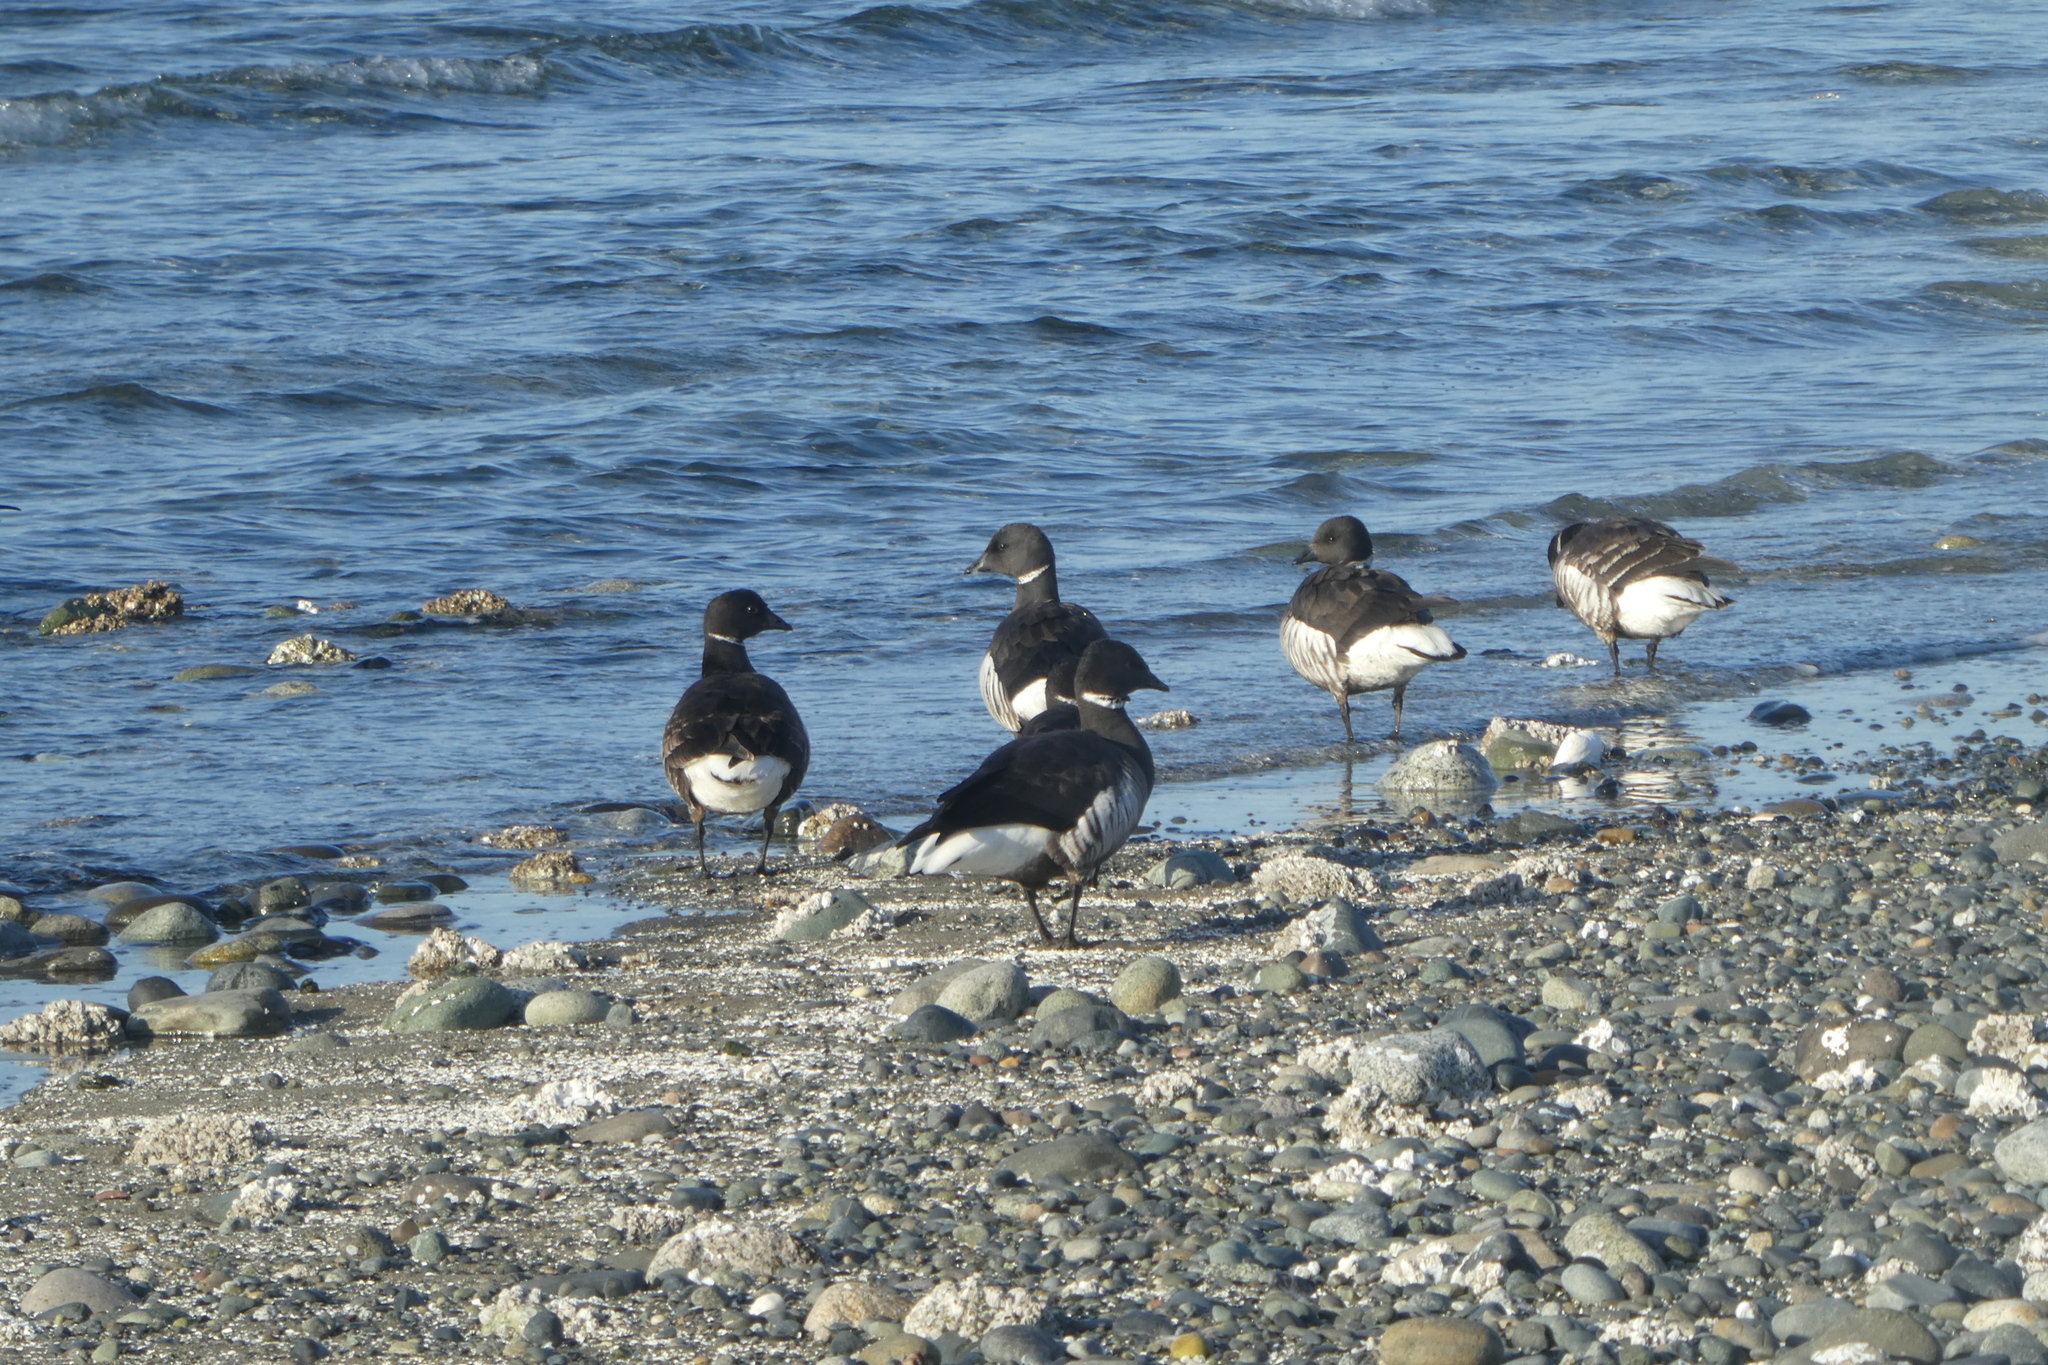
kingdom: Animalia
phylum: Chordata
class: Aves
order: Anseriformes
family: Anatidae
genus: Branta
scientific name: Branta bernicla
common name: Brant goose
